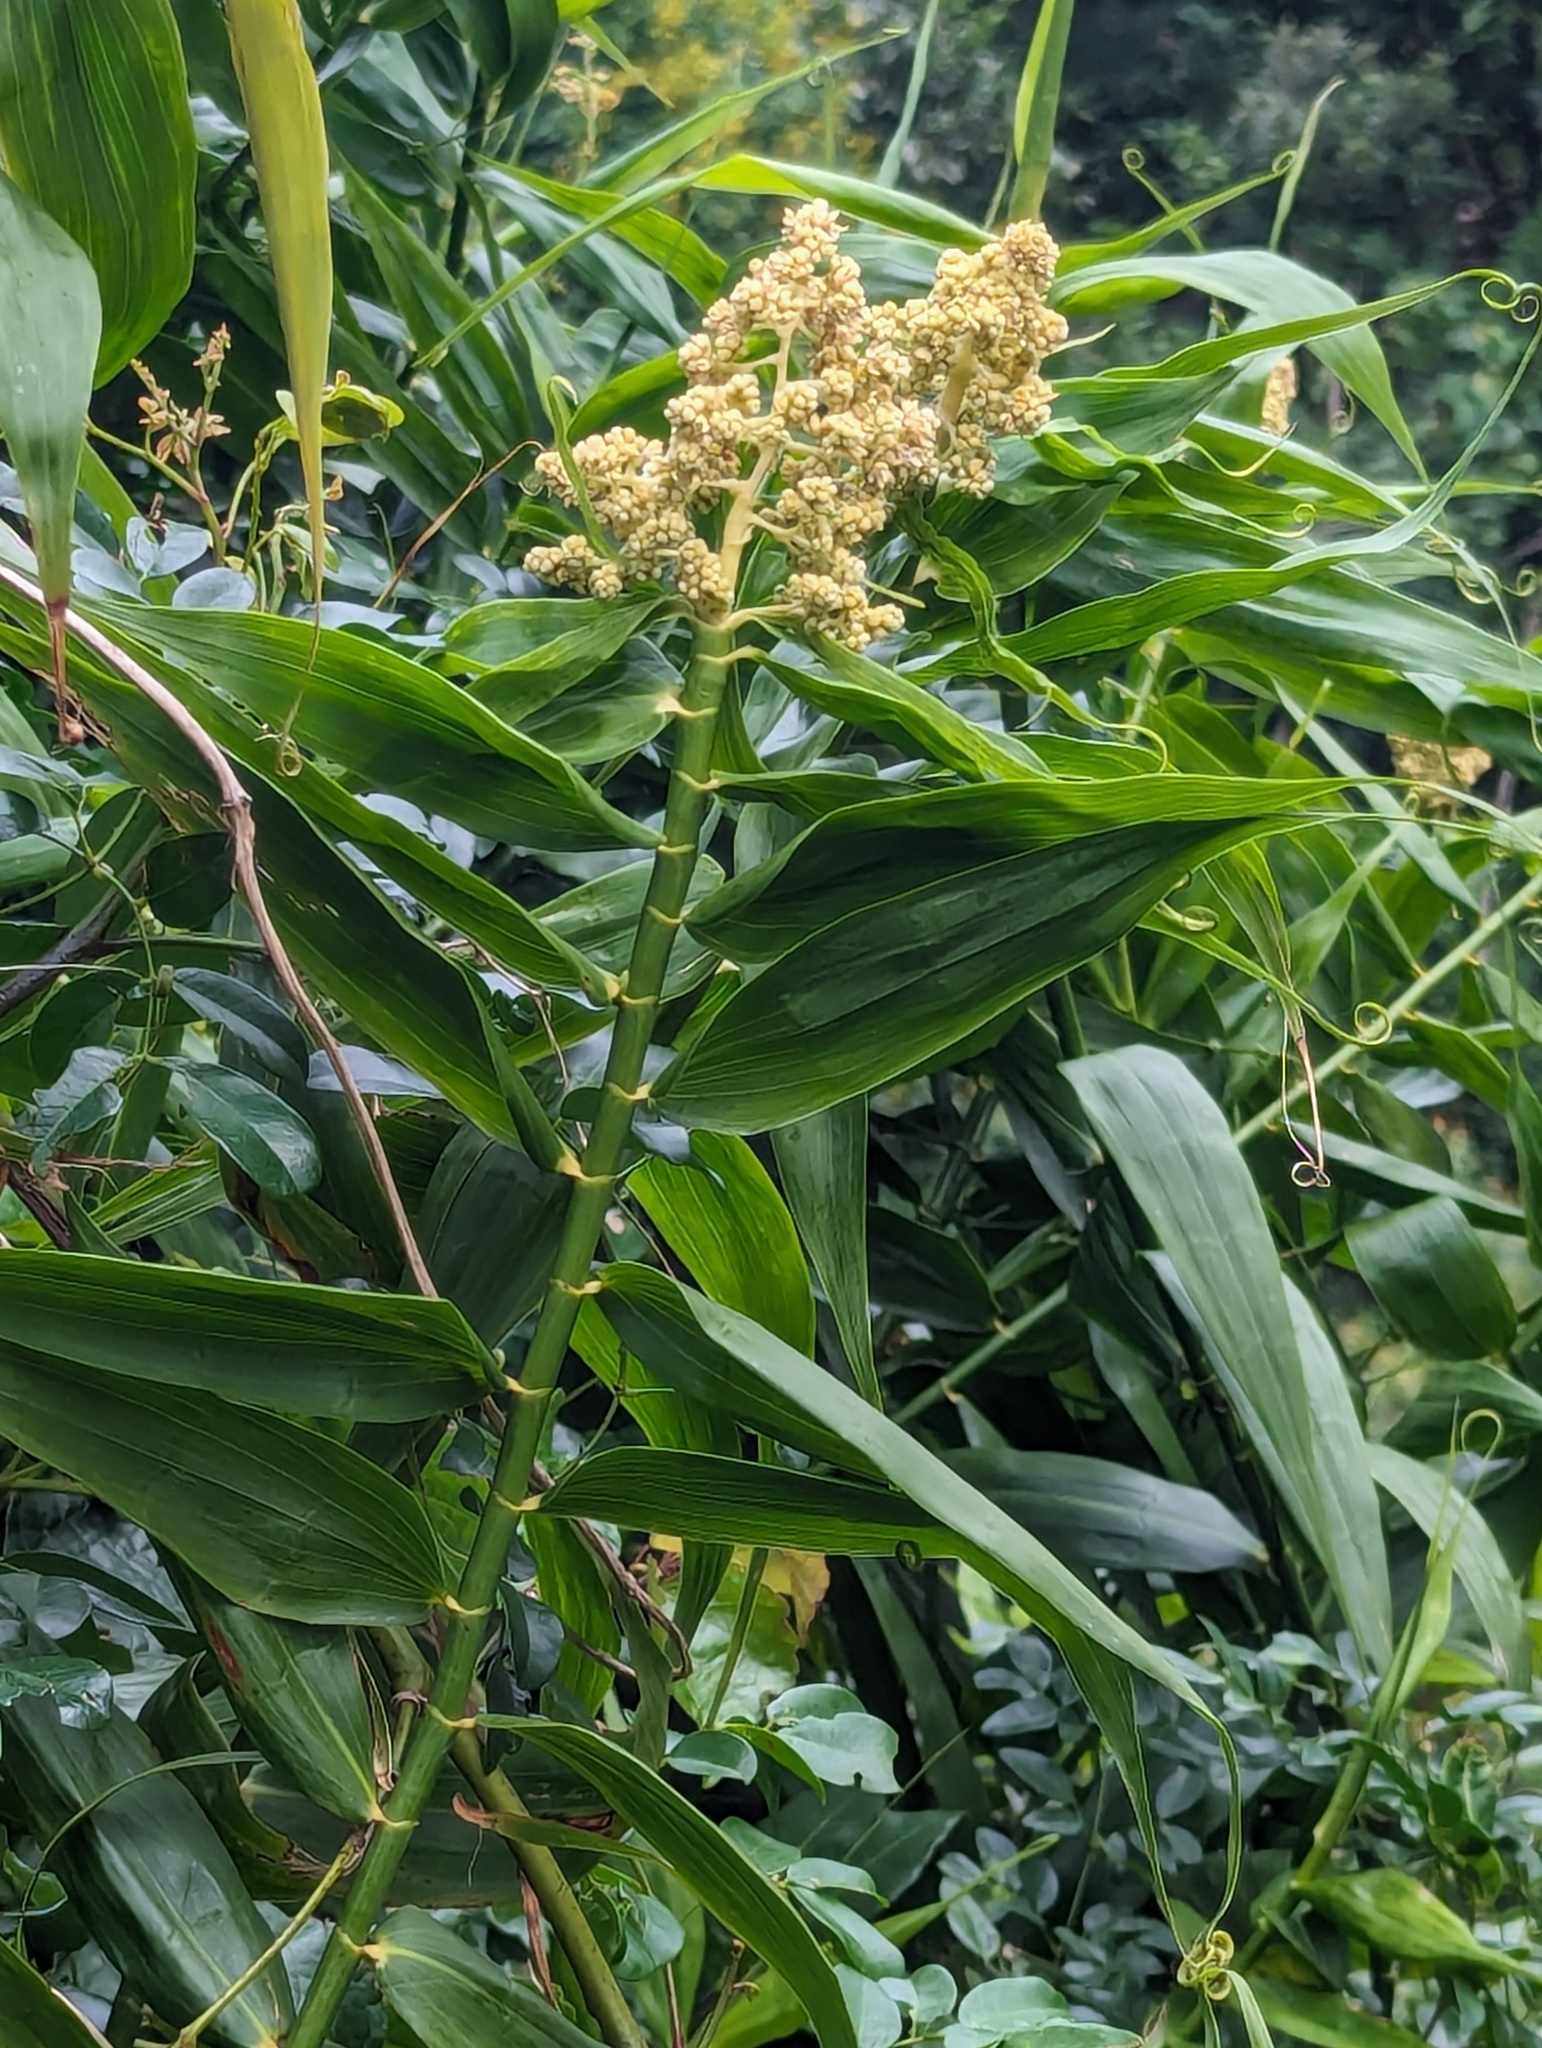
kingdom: Plantae
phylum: Tracheophyta
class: Liliopsida
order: Poales
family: Flagellariaceae
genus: Flagellaria
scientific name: Flagellaria indica
